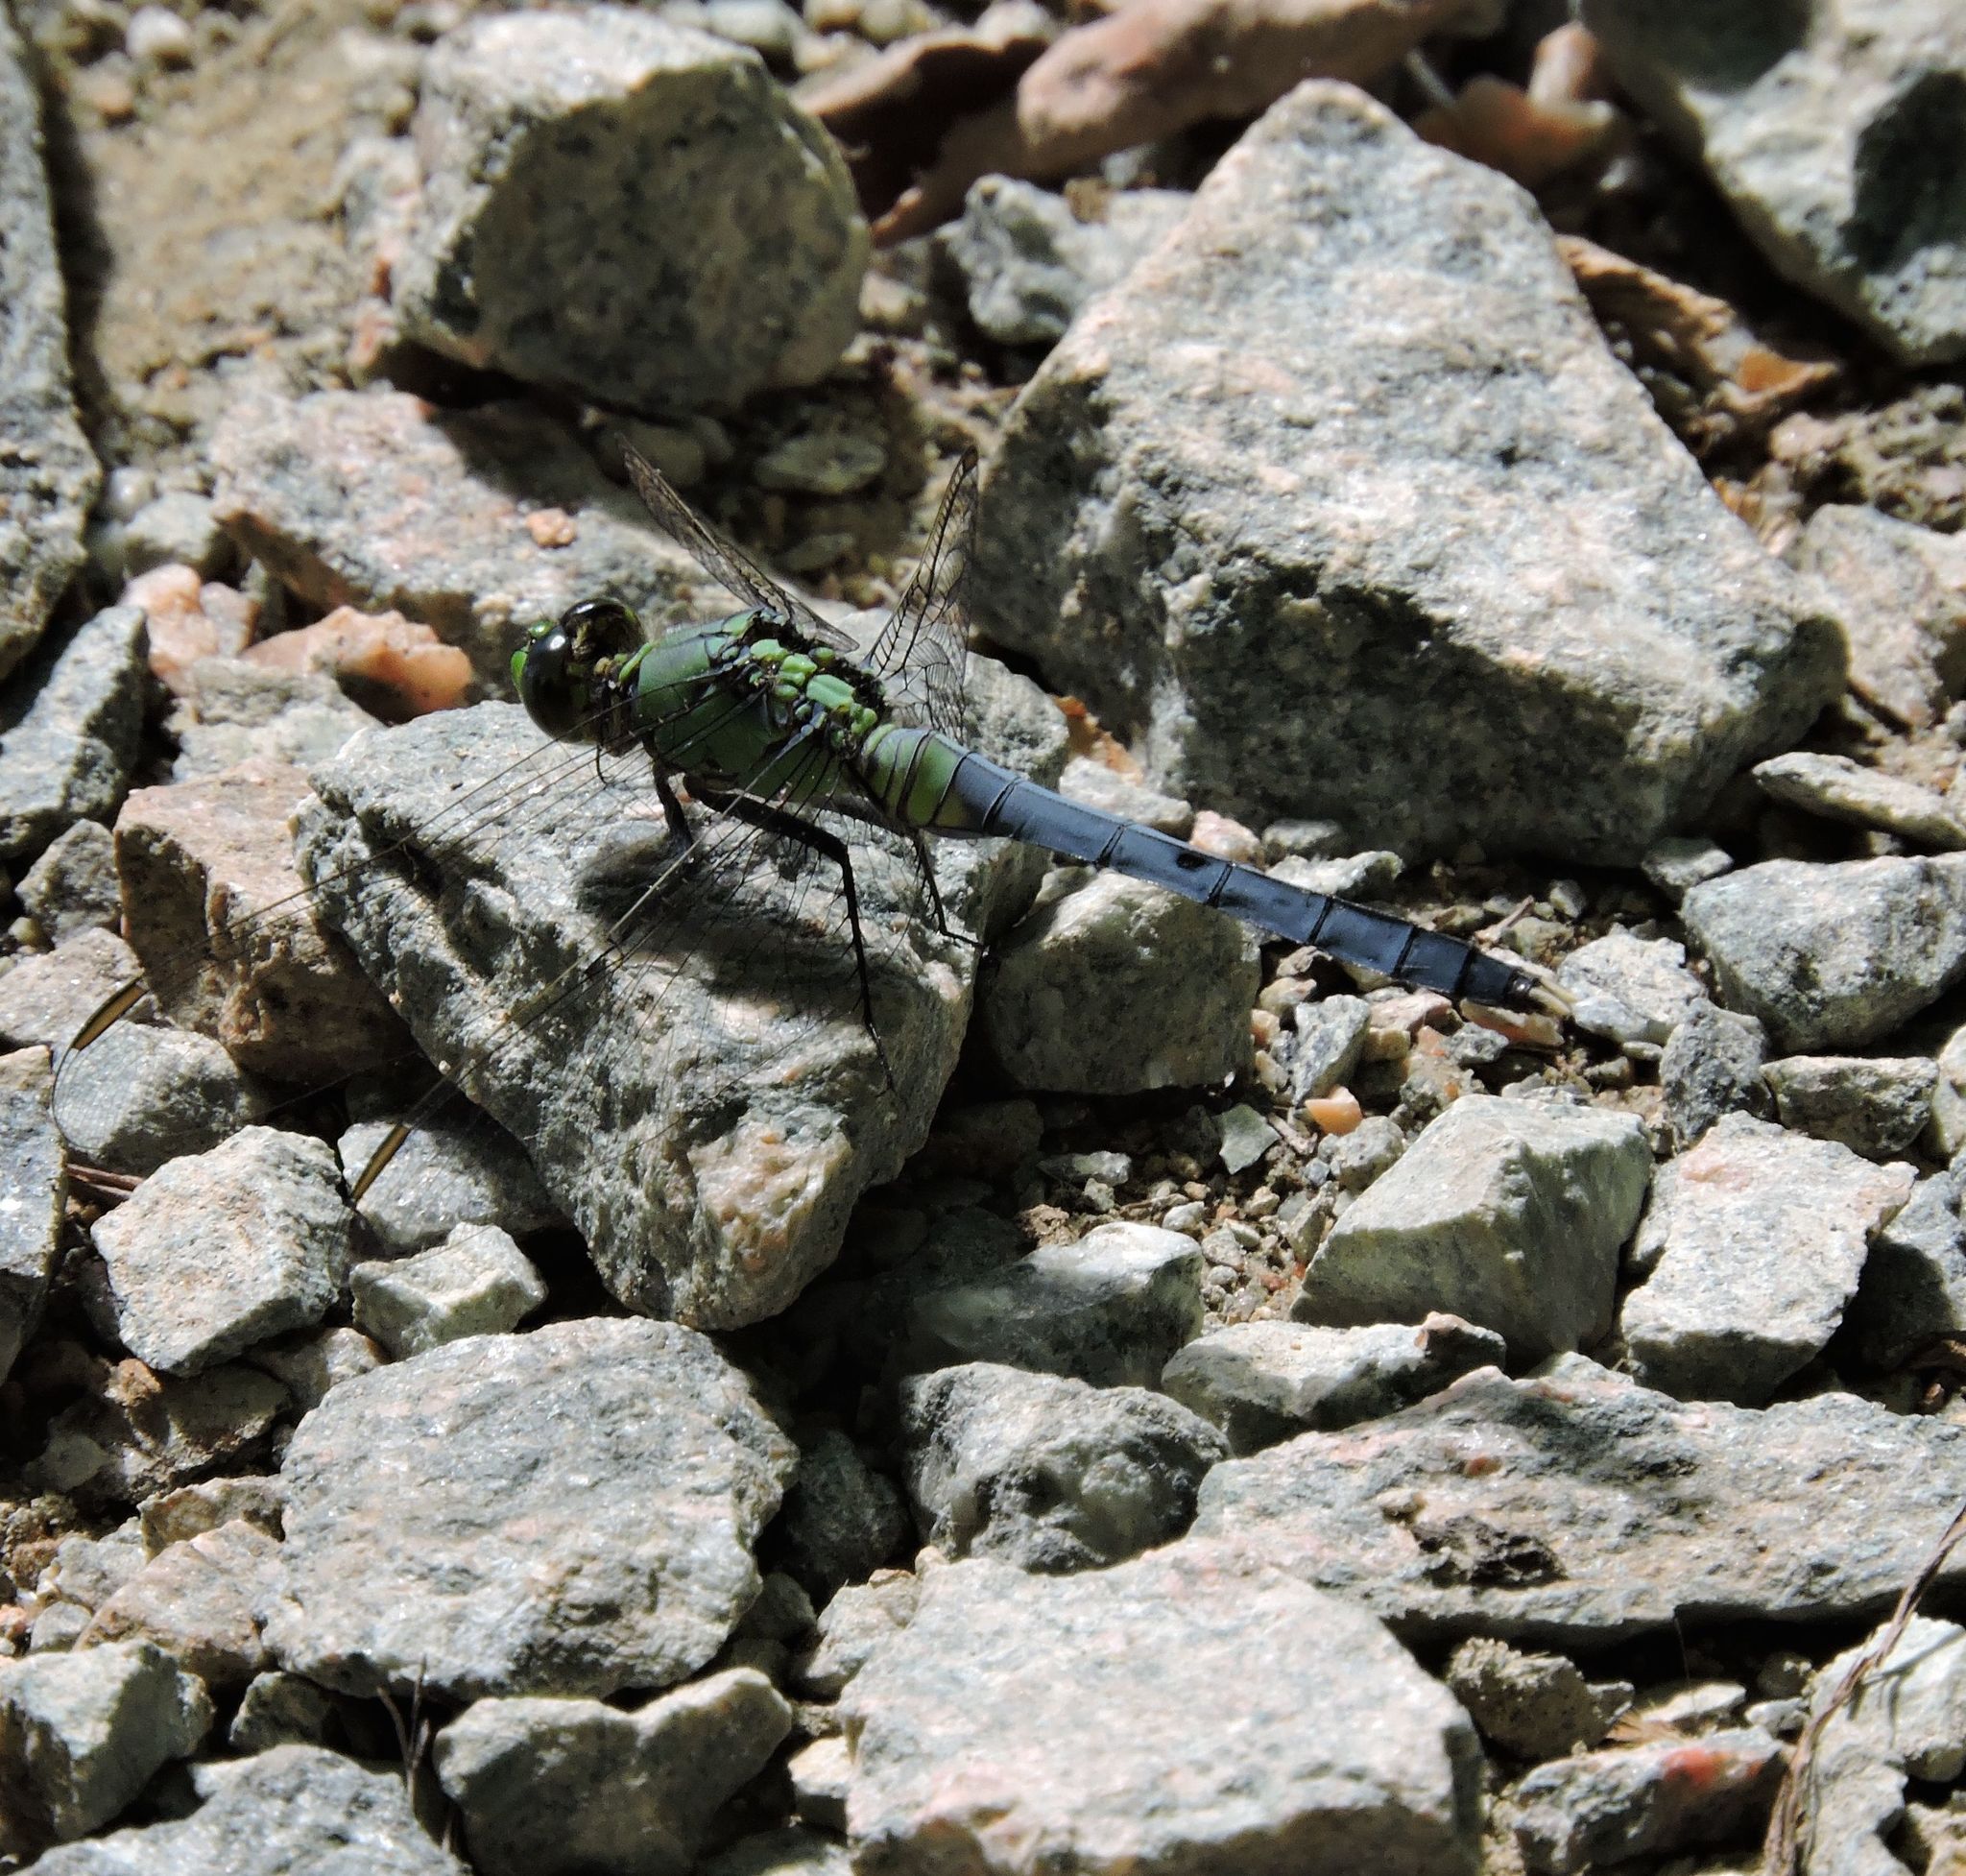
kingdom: Animalia
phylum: Arthropoda
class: Insecta
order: Odonata
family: Libellulidae
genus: Erythemis
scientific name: Erythemis simplicicollis
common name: Eastern pondhawk
